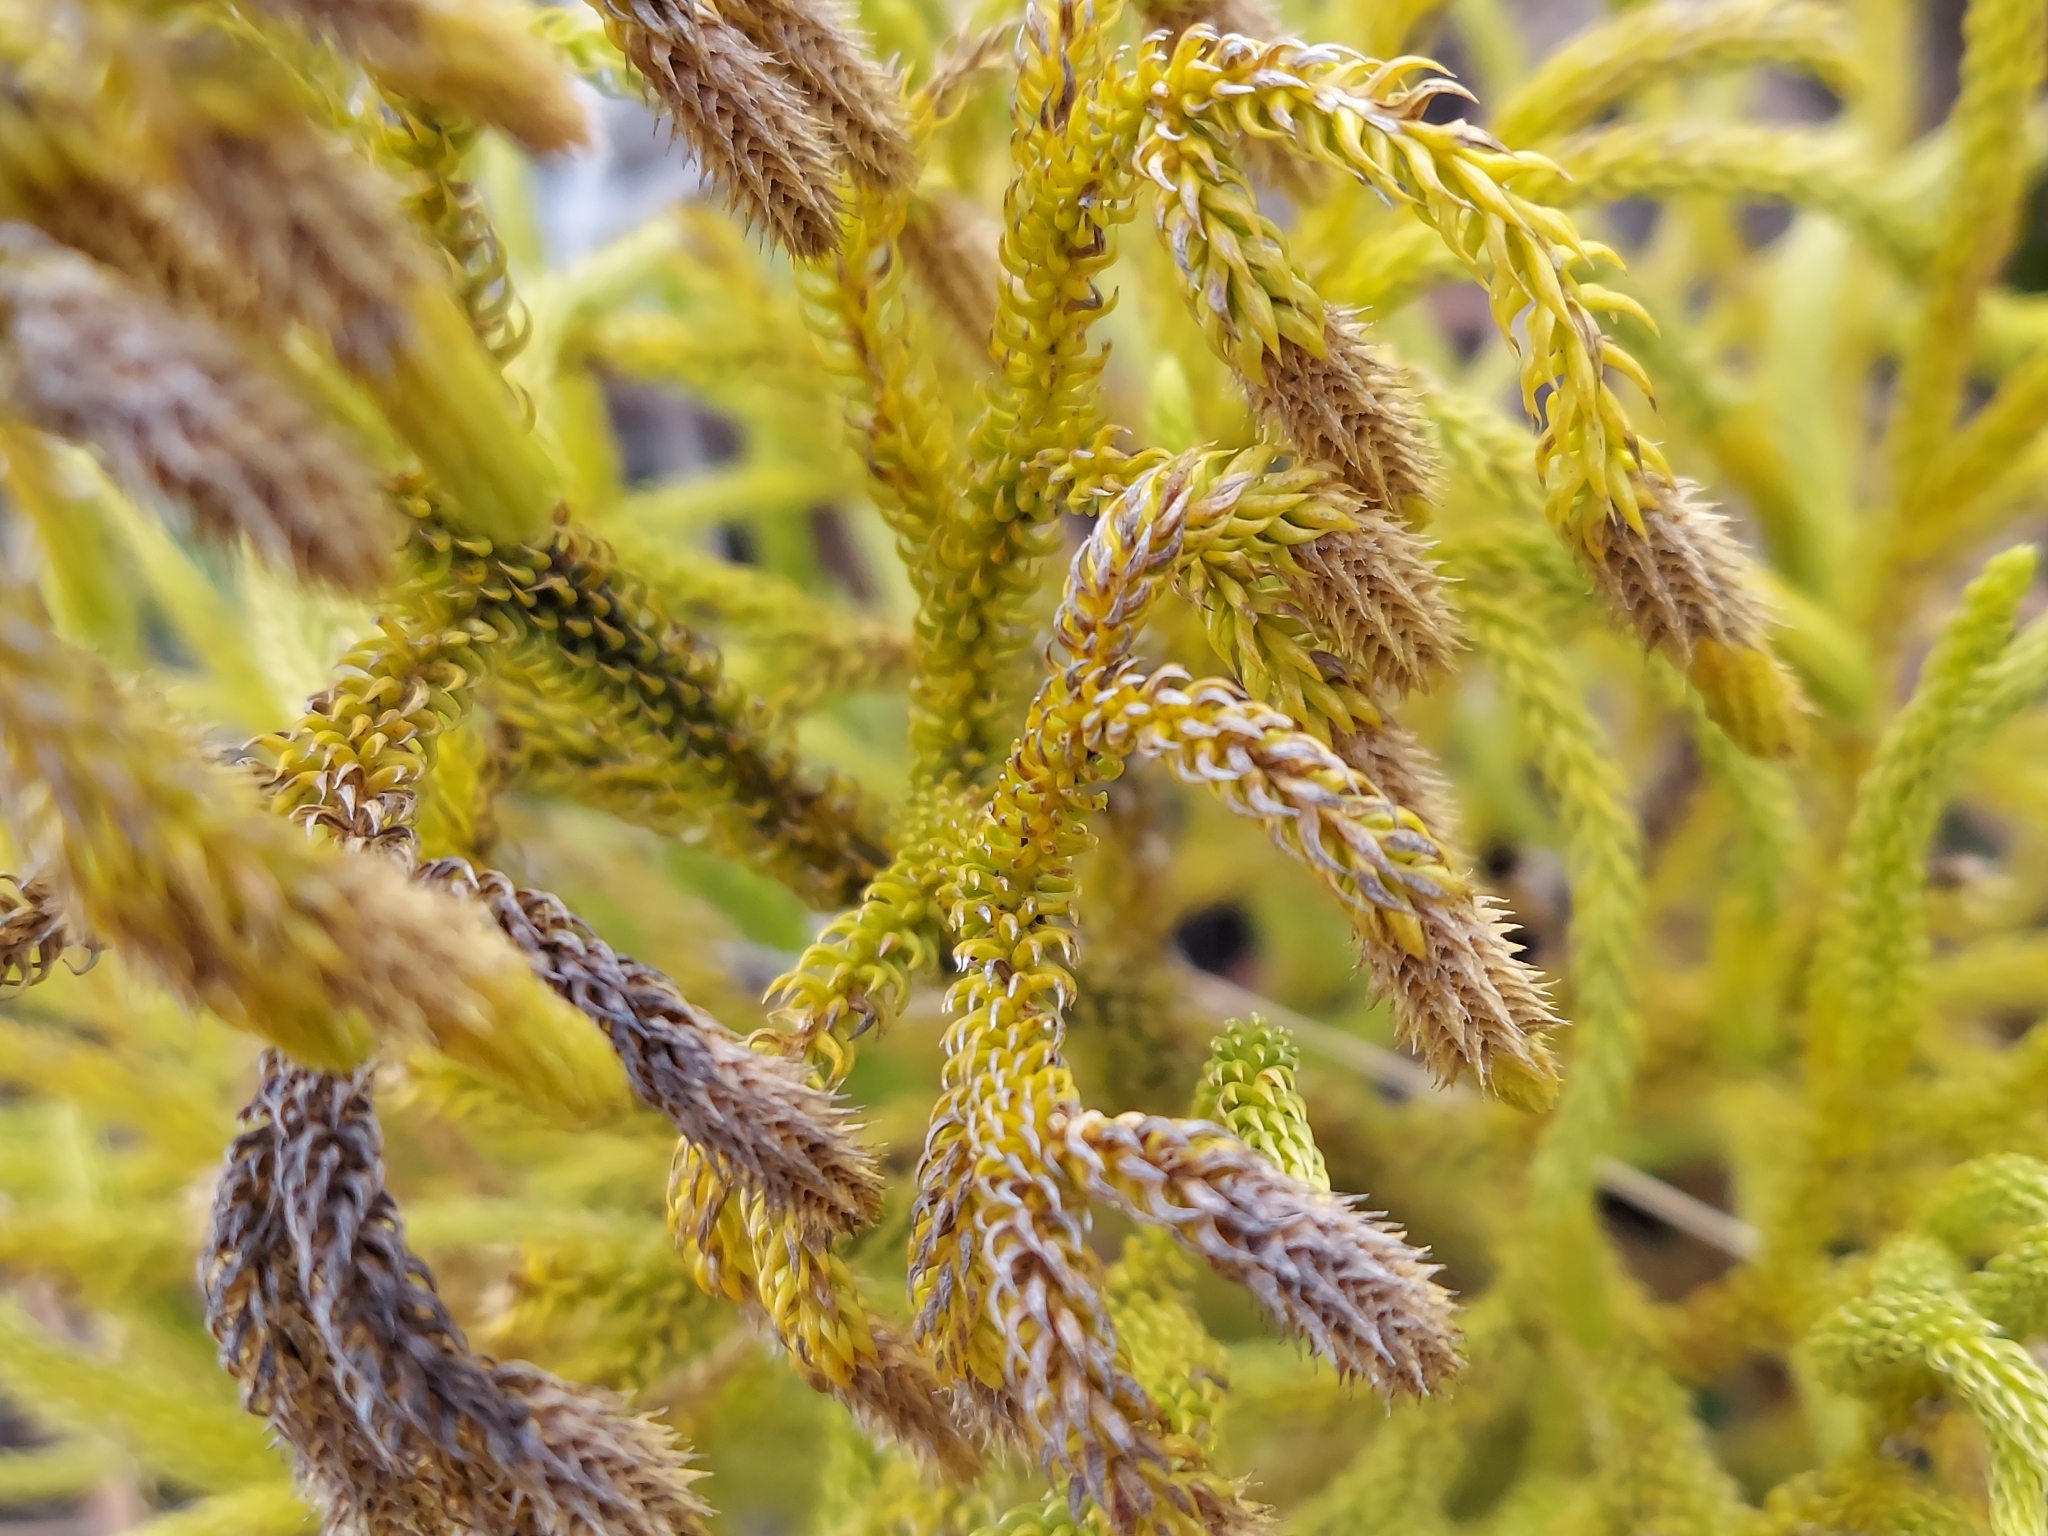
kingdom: Plantae
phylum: Tracheophyta
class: Lycopodiopsida
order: Lycopodiales
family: Lycopodiaceae
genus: Palhinhaea
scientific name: Palhinhaea cernua
